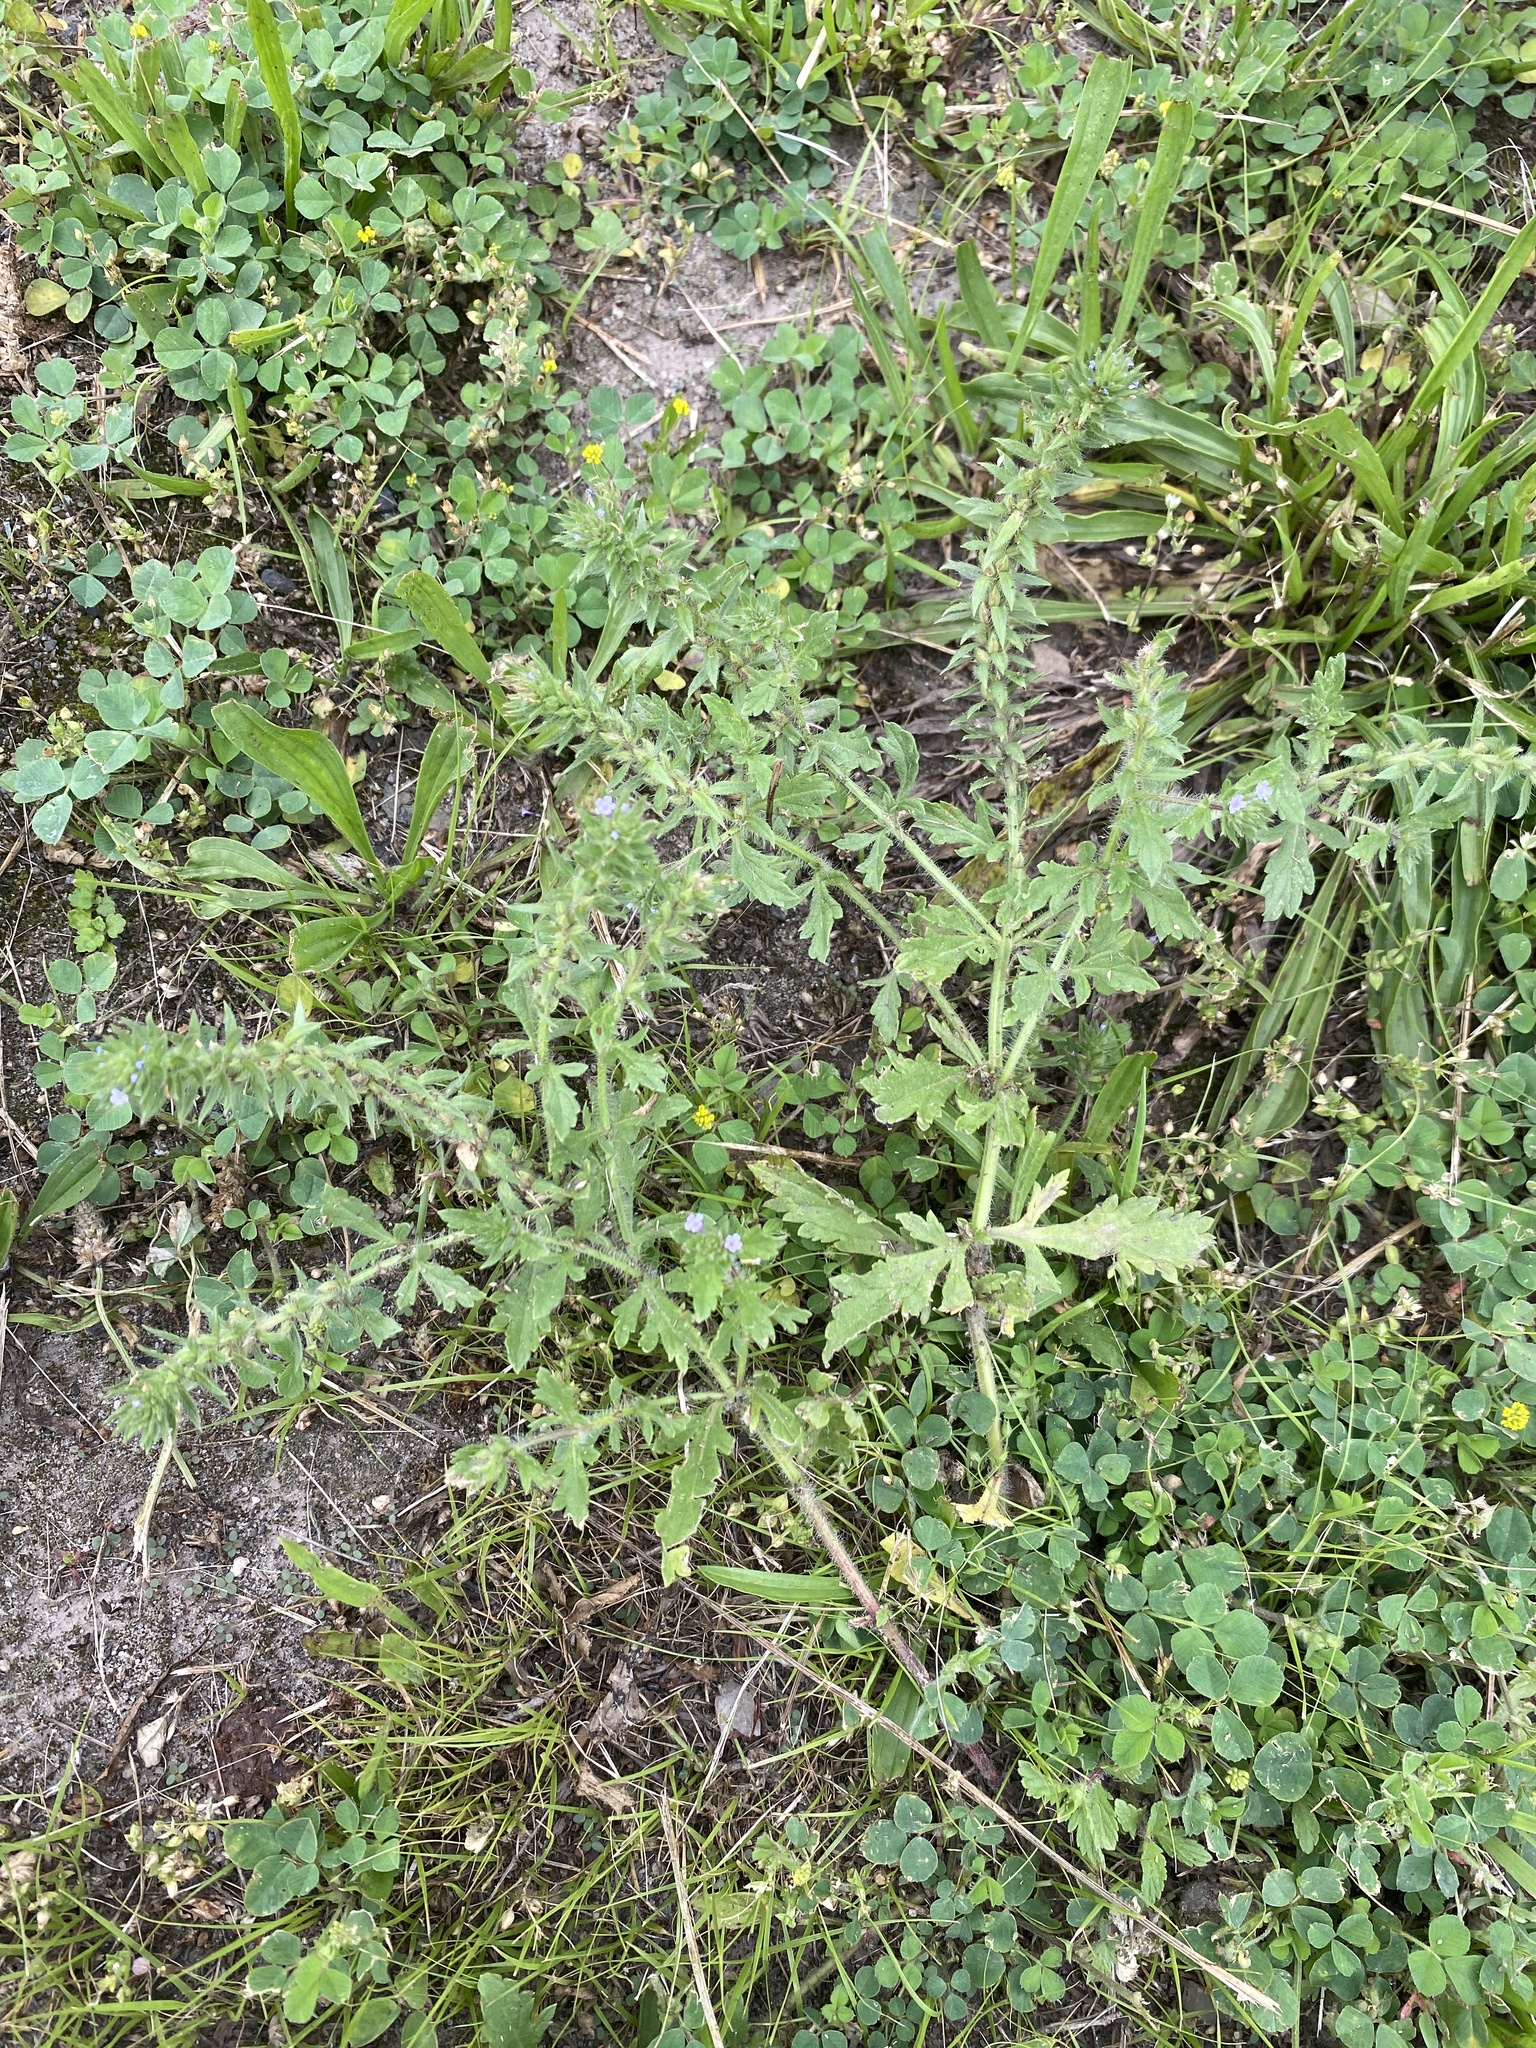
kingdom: Plantae
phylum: Tracheophyta
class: Magnoliopsida
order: Lamiales
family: Verbenaceae
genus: Verbena
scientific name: Verbena bracteata
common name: Bracted vervain
